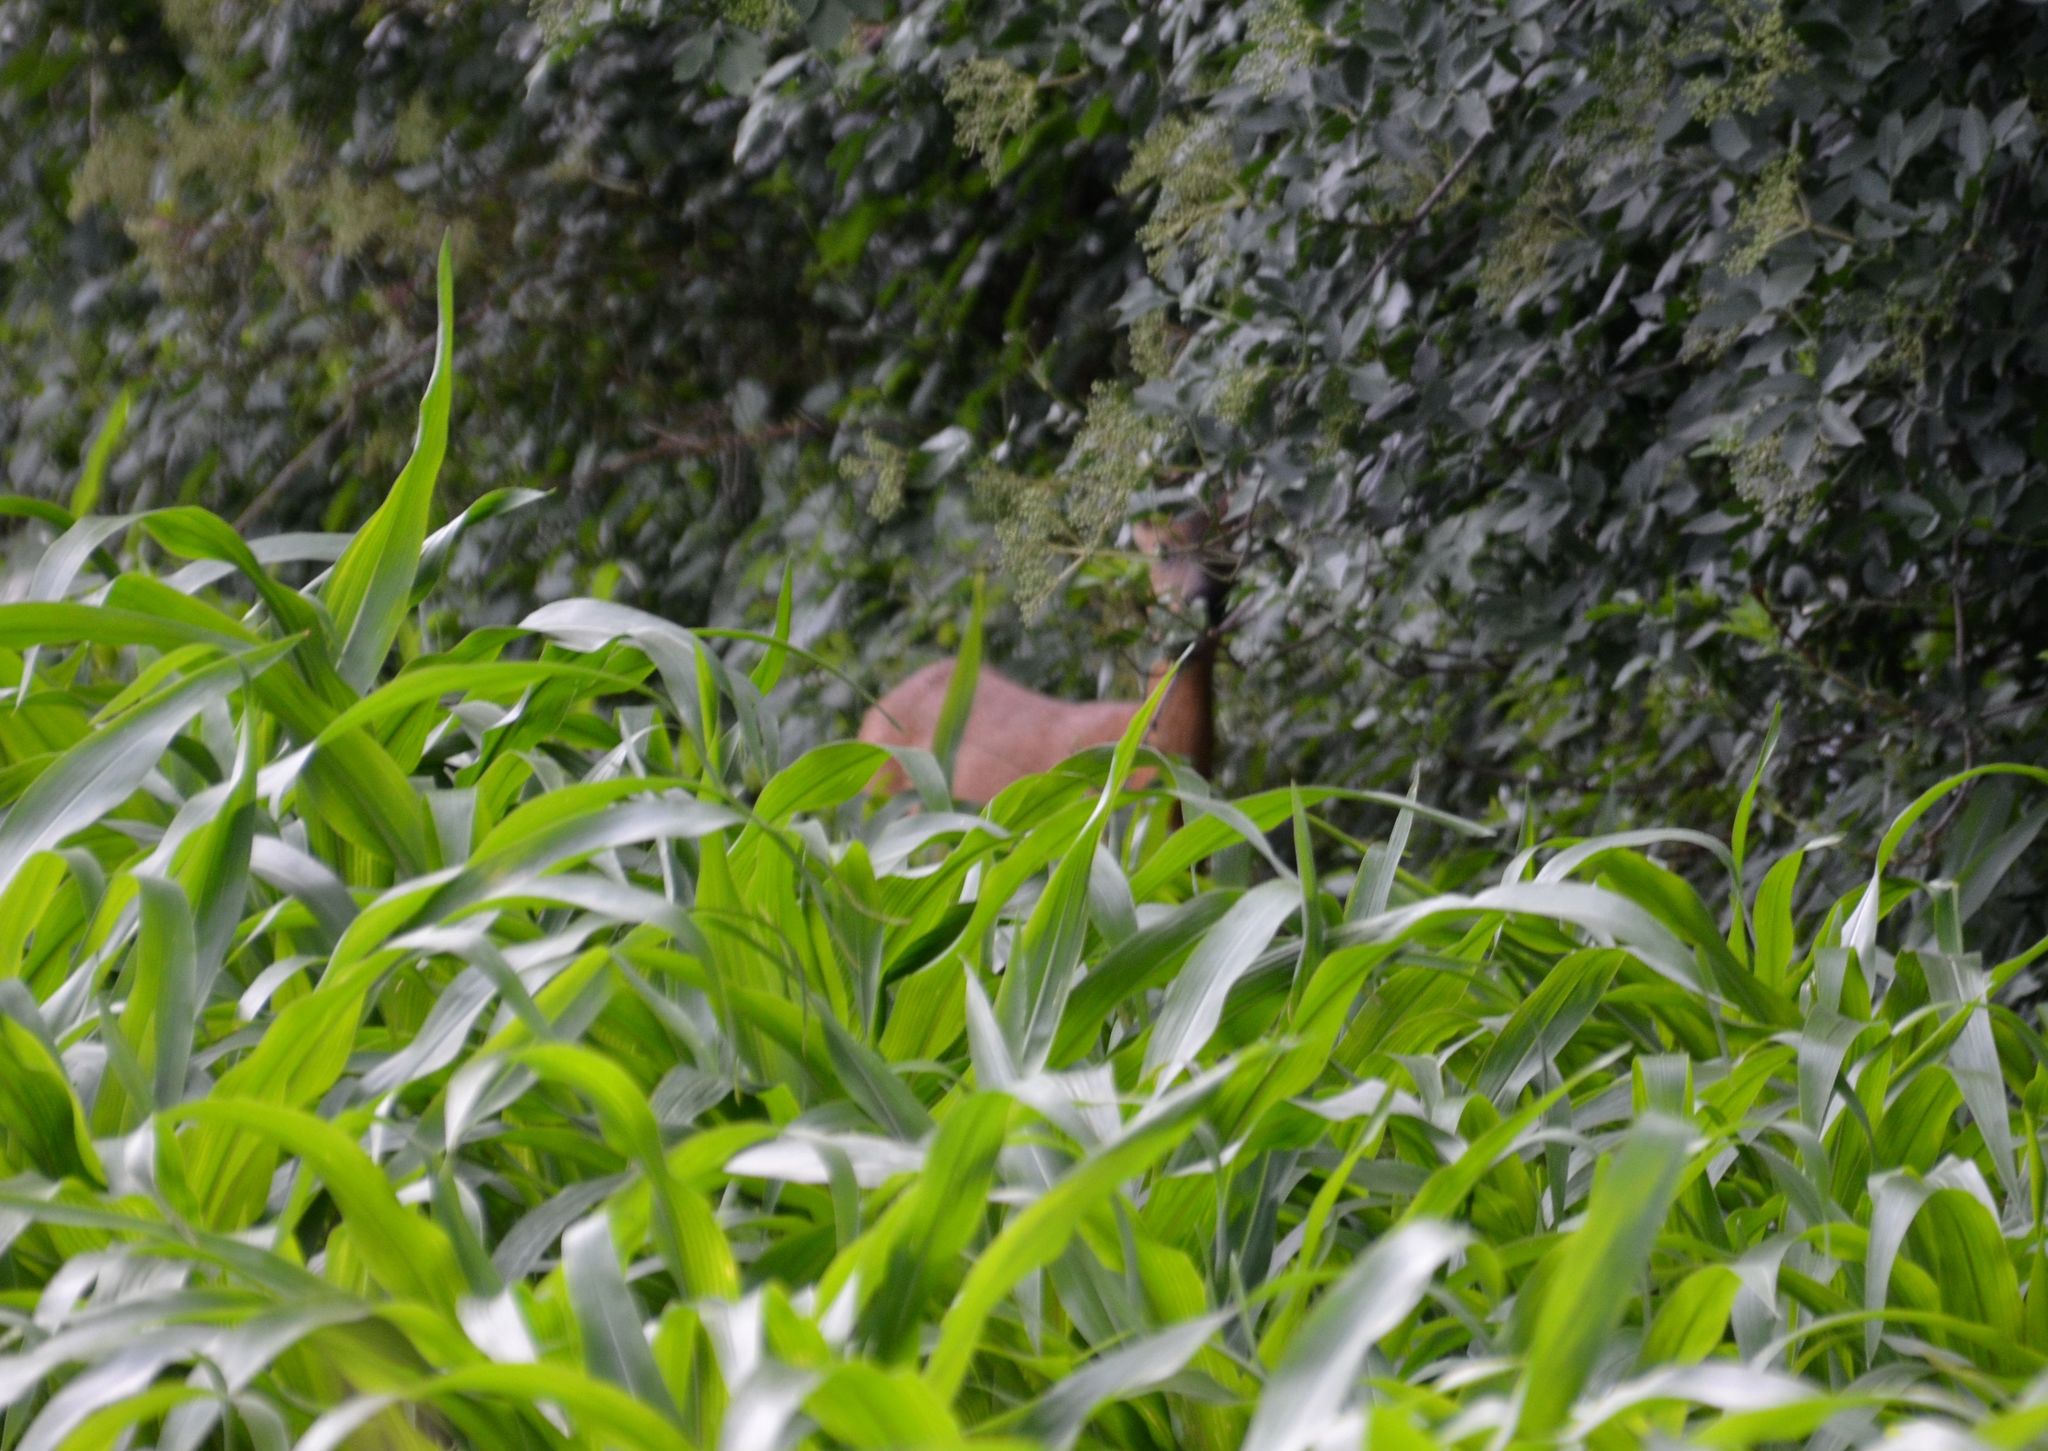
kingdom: Animalia
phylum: Chordata
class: Mammalia
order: Artiodactyla
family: Cervidae
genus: Capreolus
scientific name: Capreolus capreolus
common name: Western roe deer
